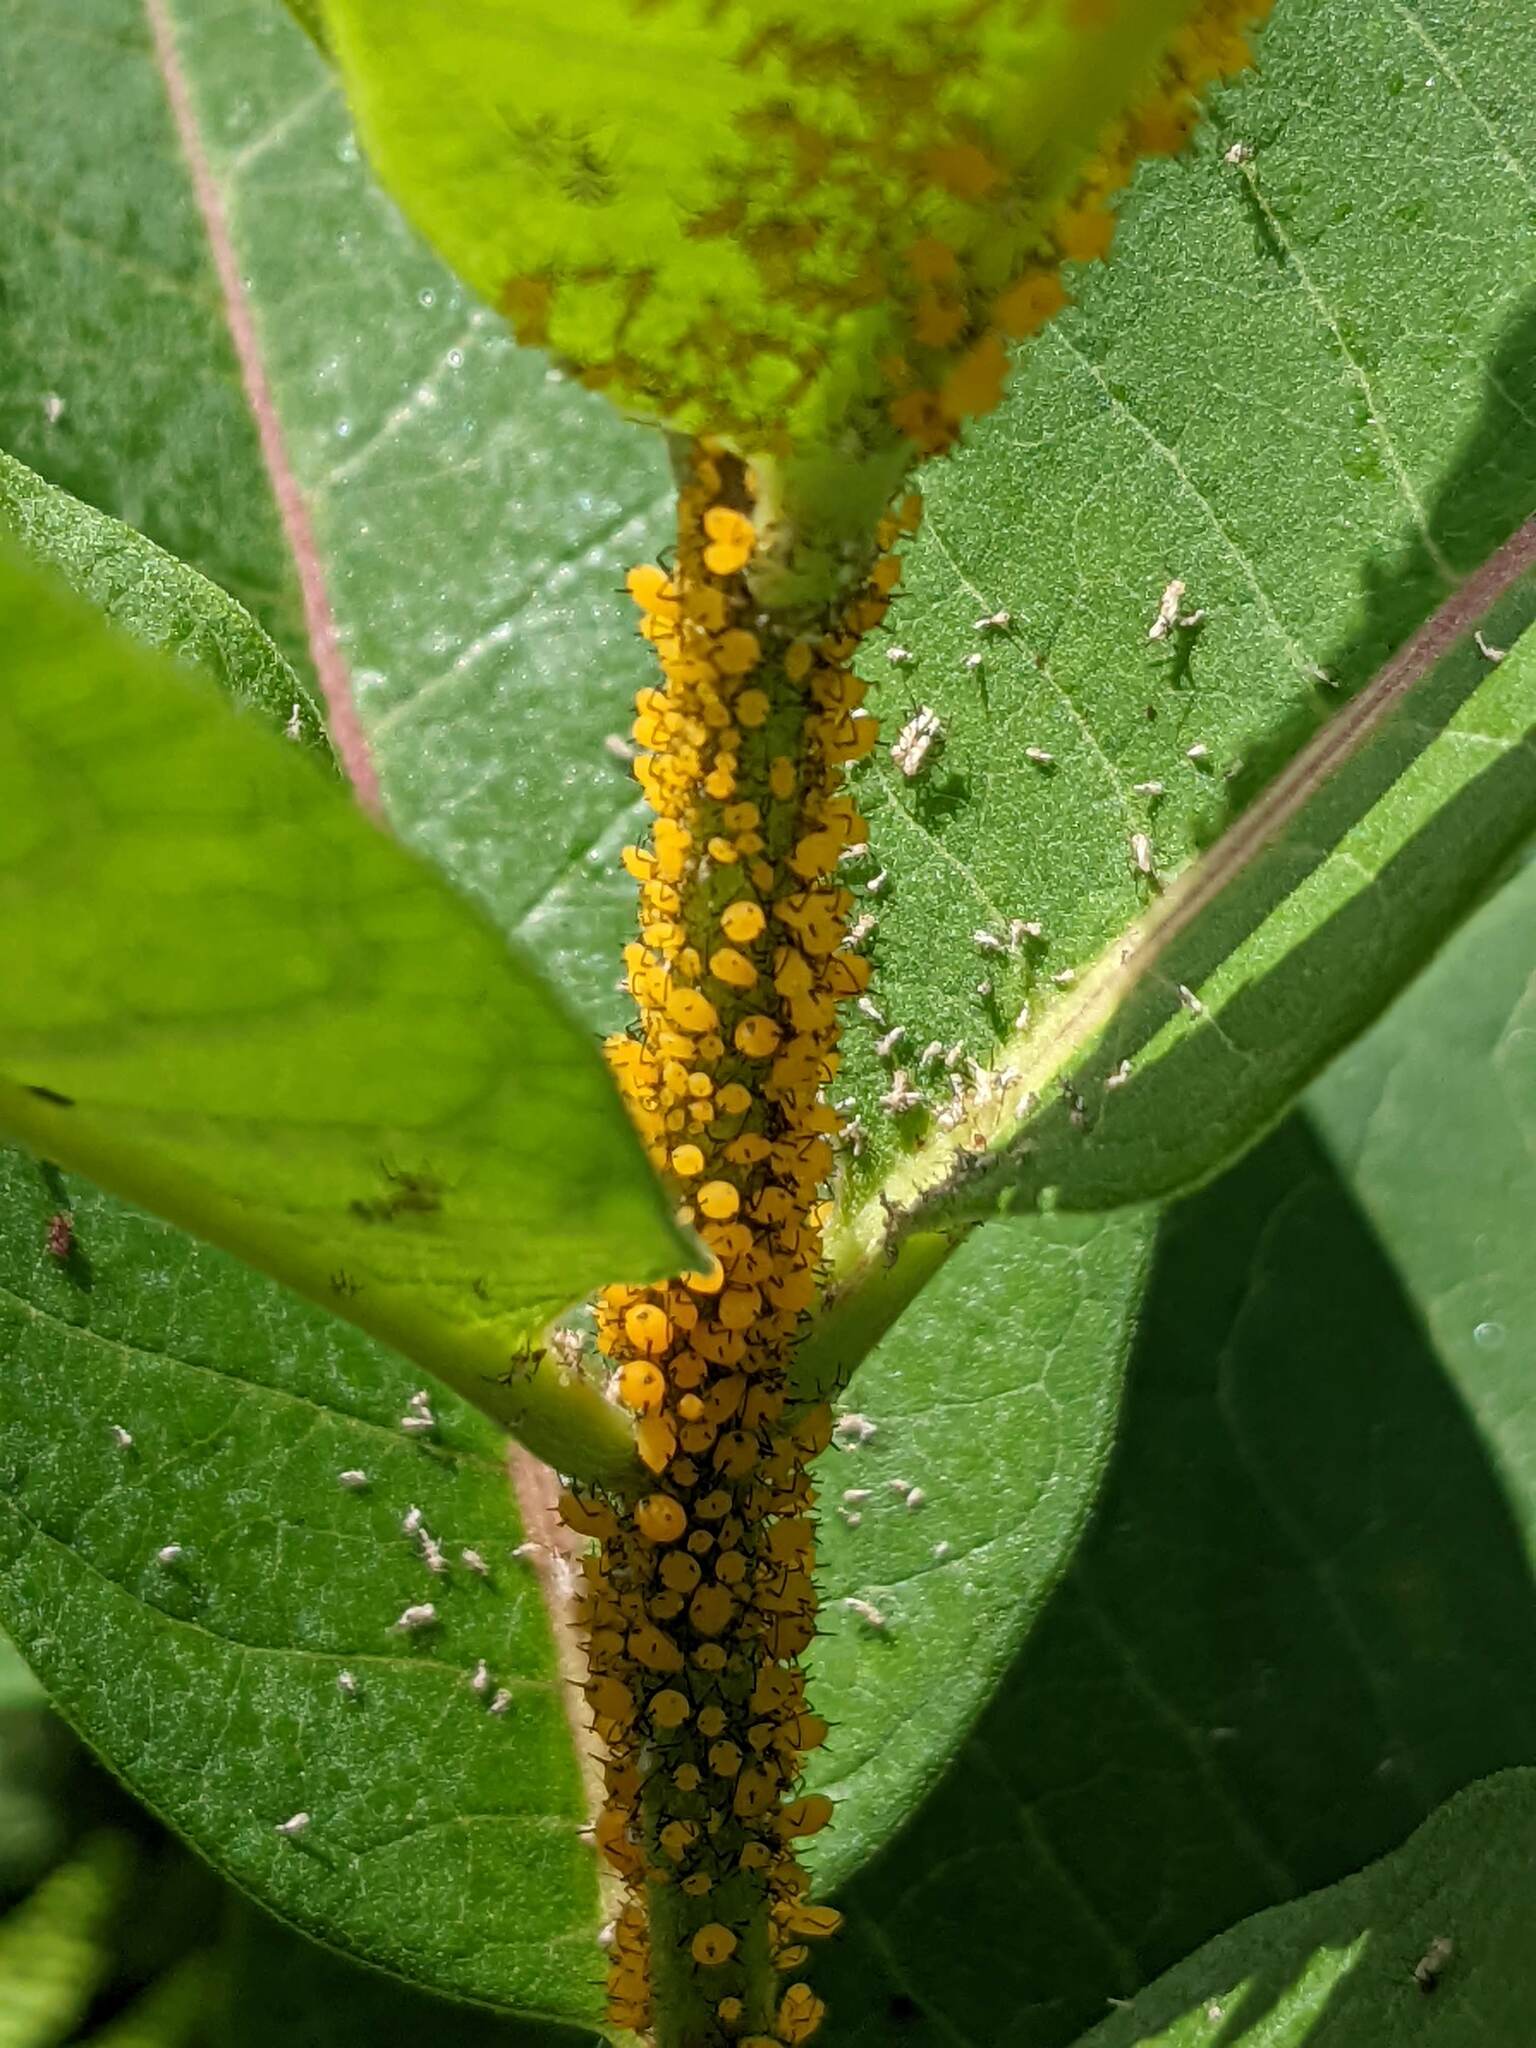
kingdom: Animalia
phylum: Arthropoda
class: Insecta
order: Hemiptera
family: Aphididae
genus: Aphis
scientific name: Aphis nerii
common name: Oleander aphid
